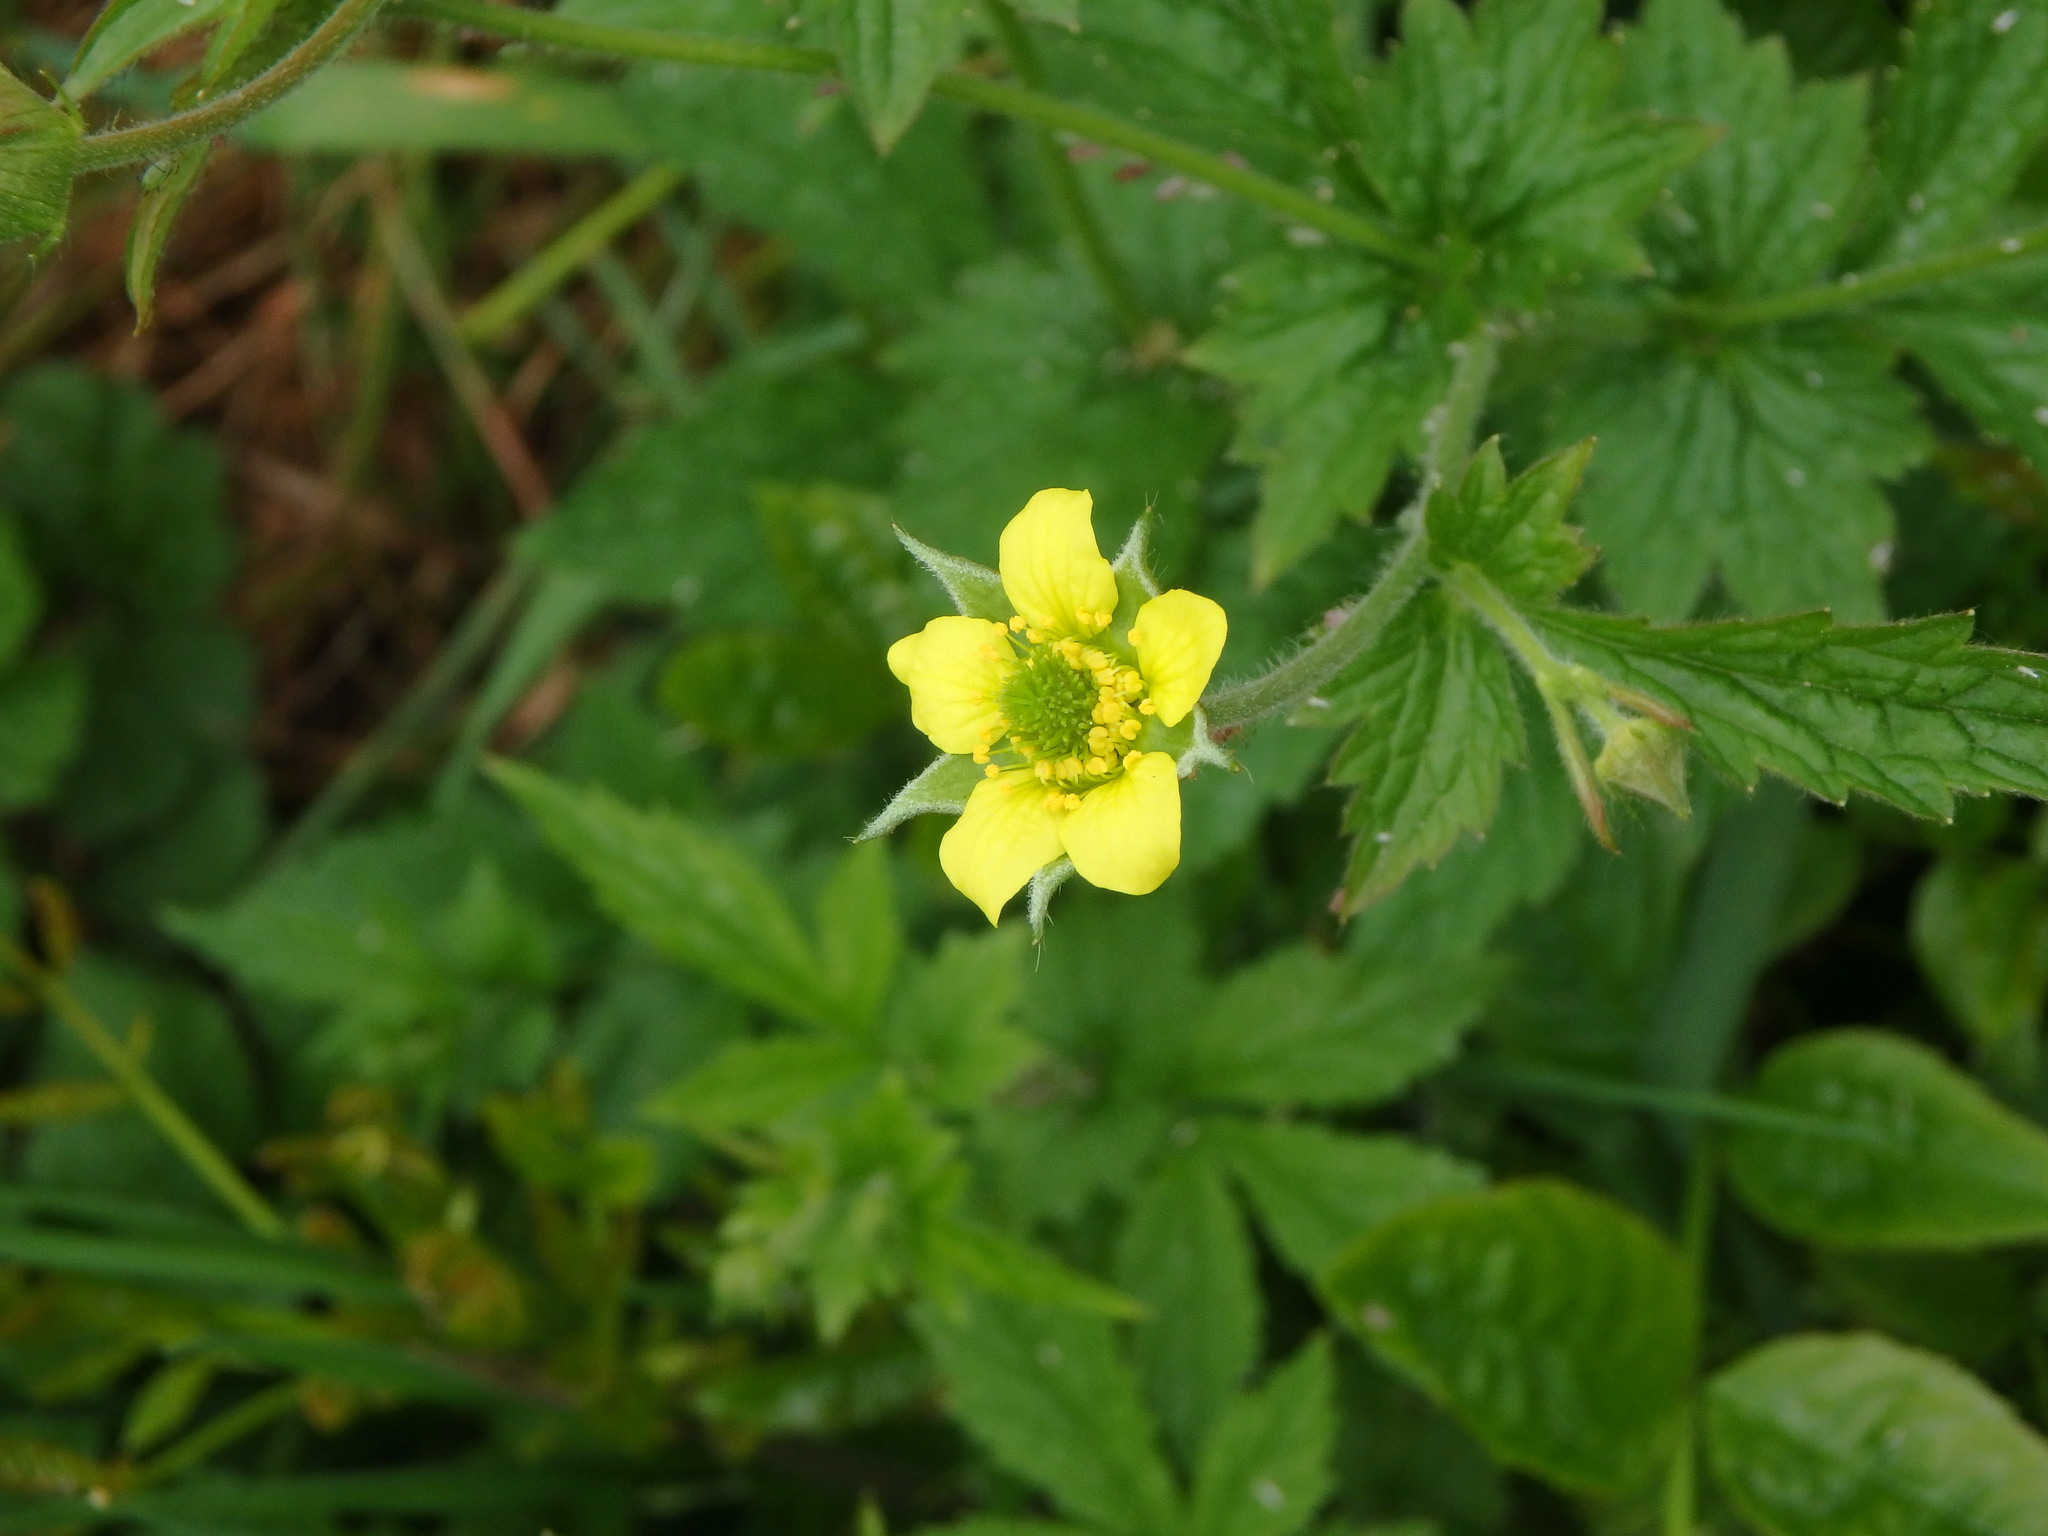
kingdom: Plantae
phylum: Tracheophyta
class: Magnoliopsida
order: Rosales
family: Rosaceae
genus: Geum
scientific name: Geum urbanum
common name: Wood avens
